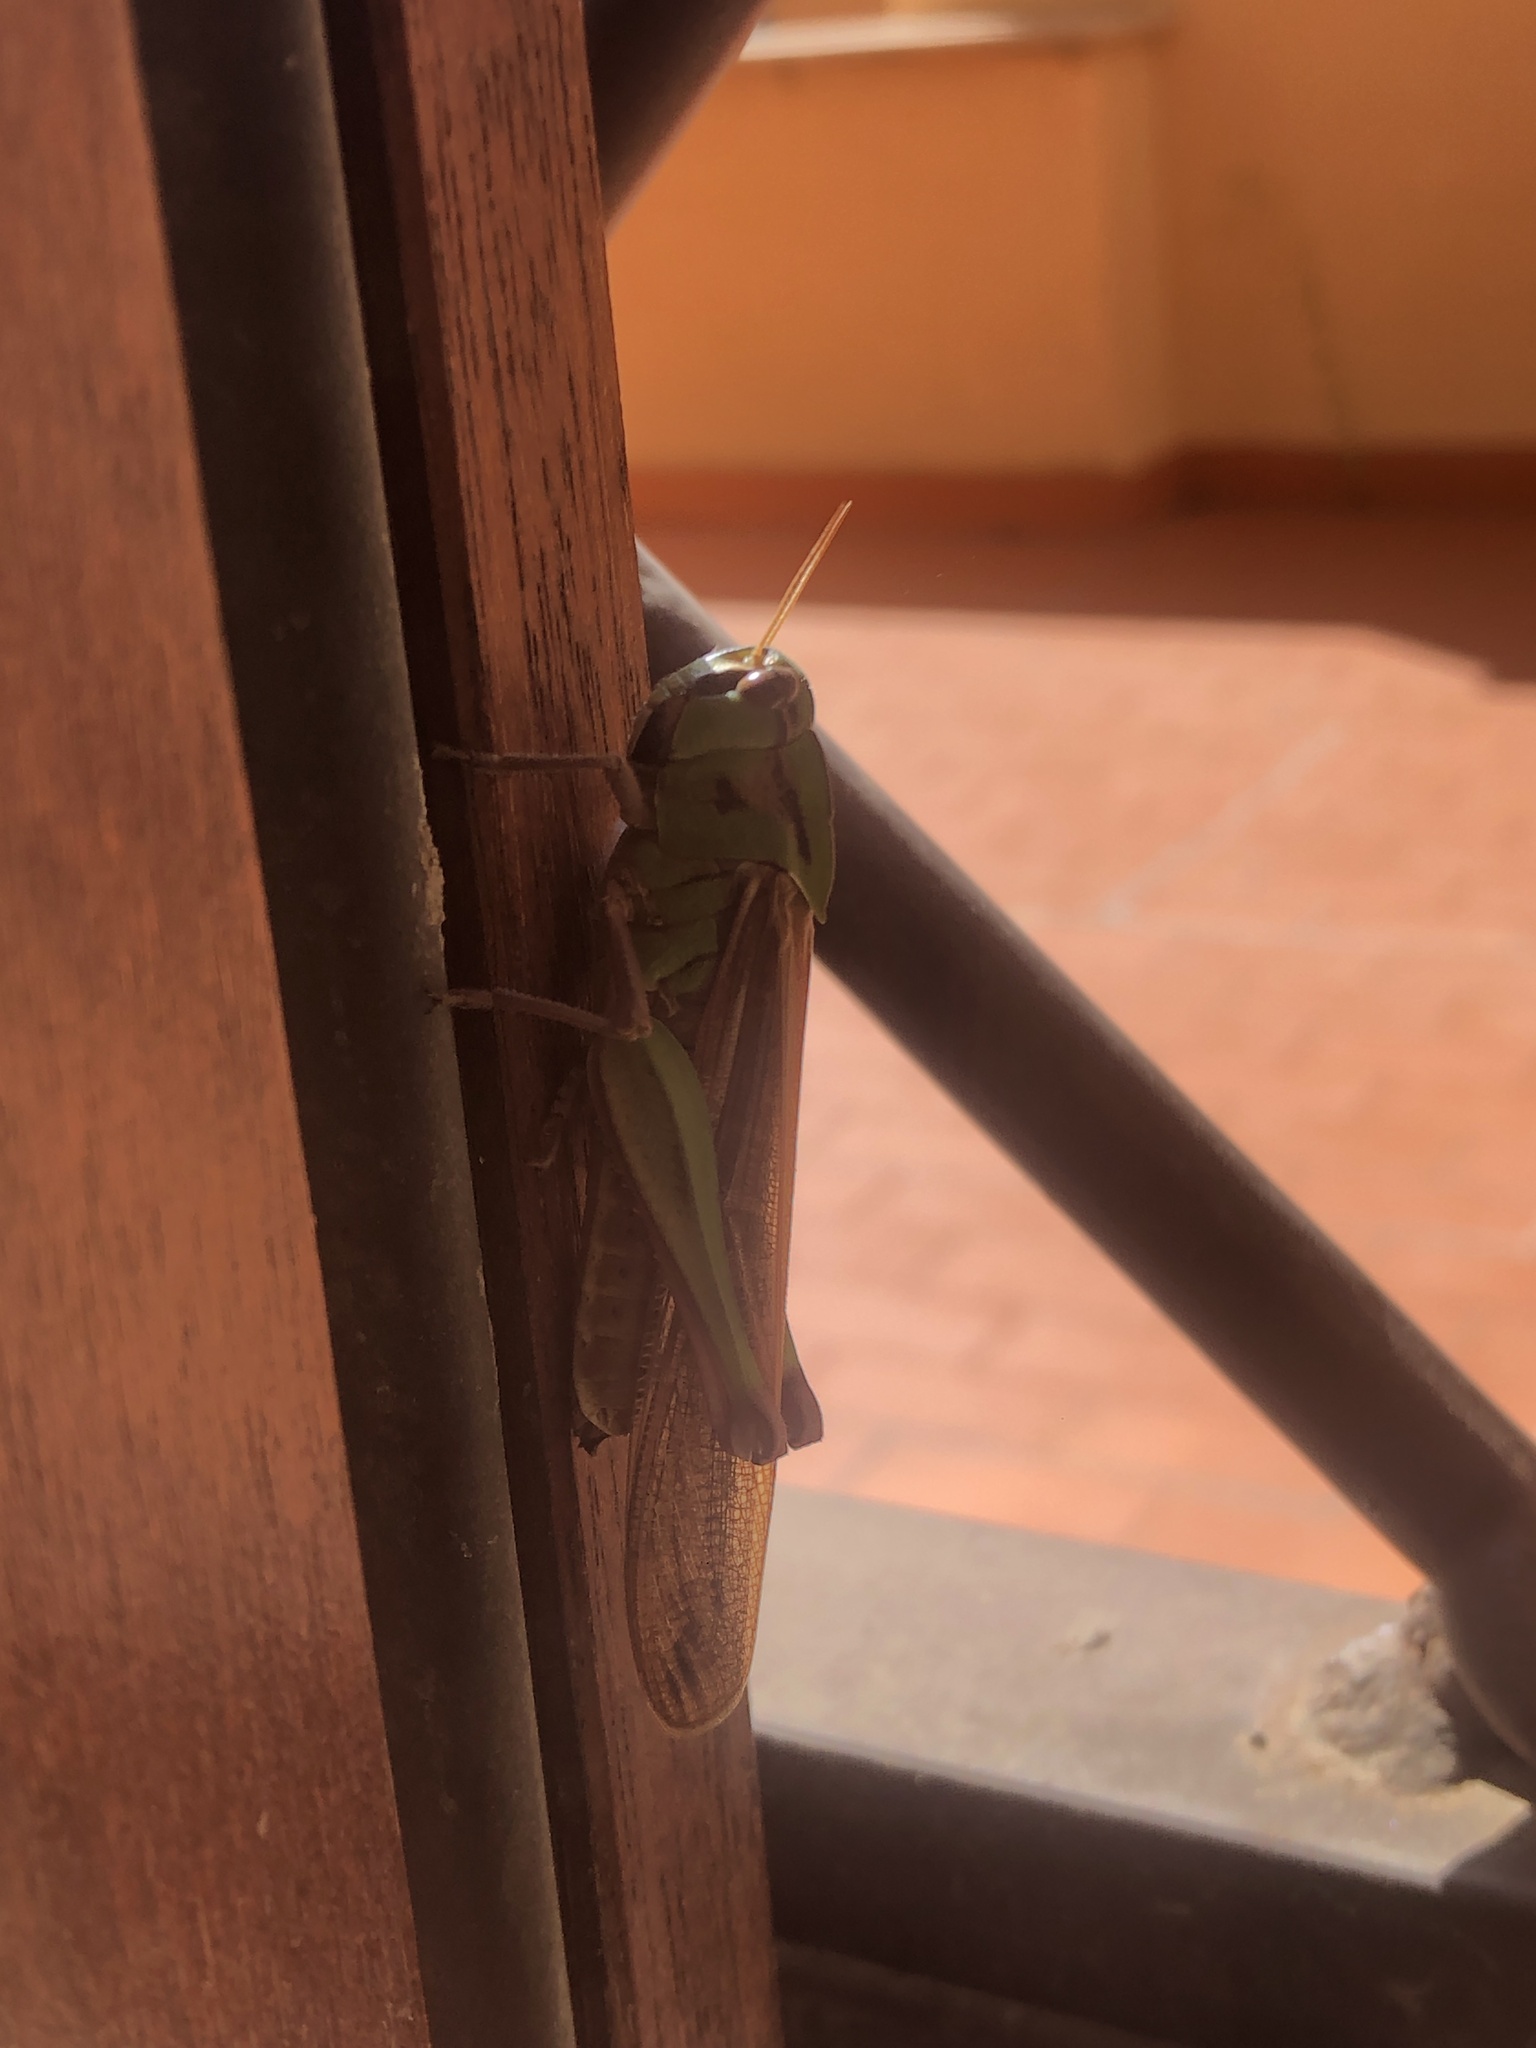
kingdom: Animalia
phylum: Arthropoda
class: Insecta
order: Orthoptera
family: Acrididae
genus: Locusta
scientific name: Locusta migratoria
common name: Migratory locust
